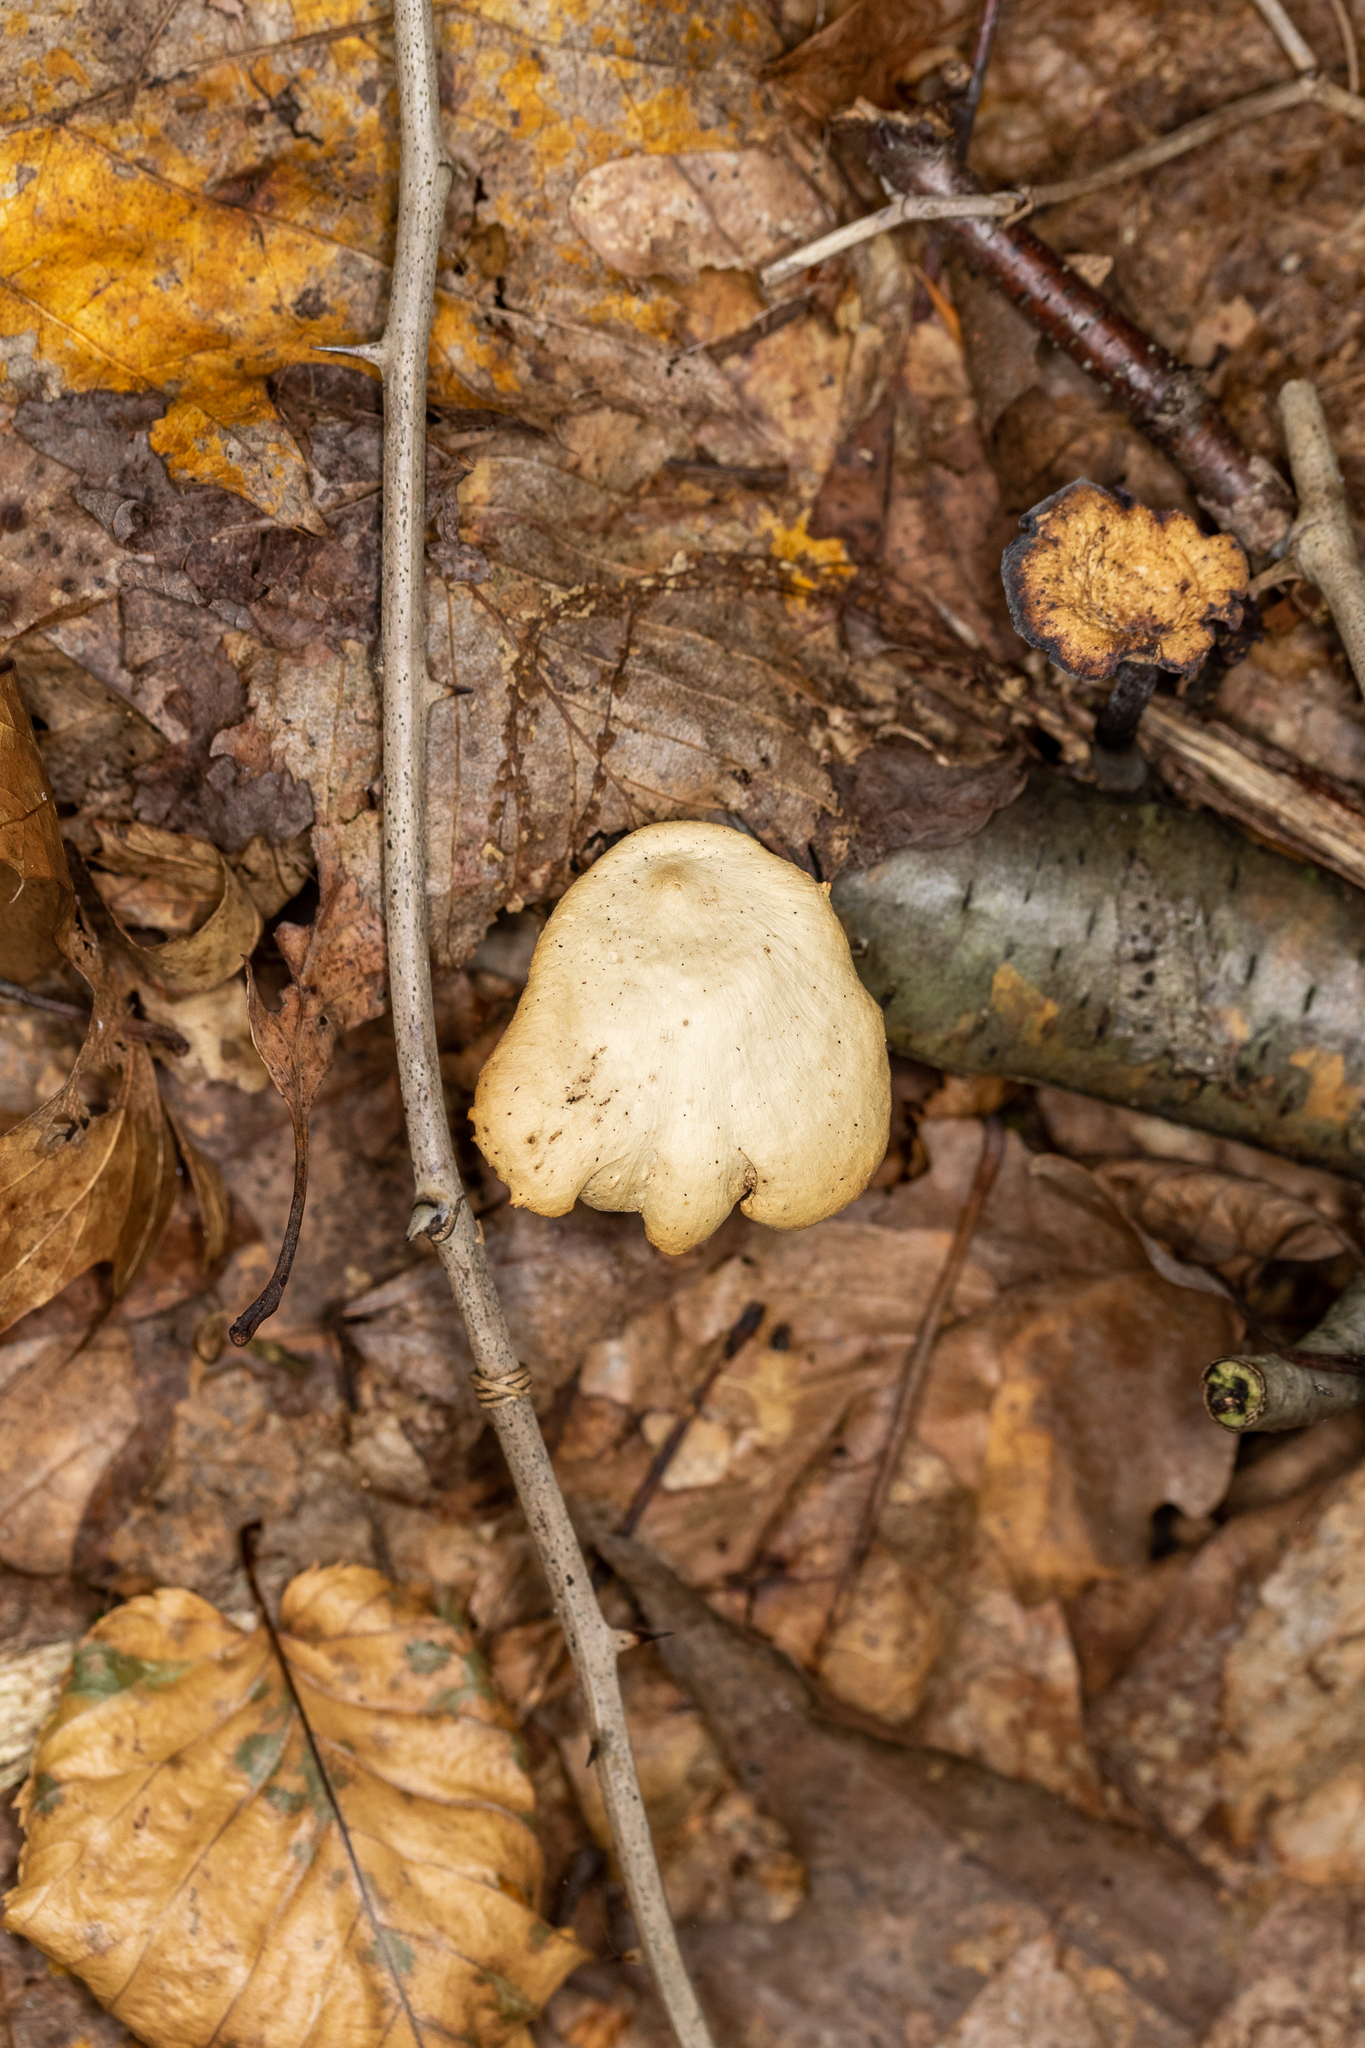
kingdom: Fungi
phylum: Basidiomycota
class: Agaricomycetes
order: Polyporales
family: Polyporaceae
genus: Cerioporus
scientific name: Cerioporus leptocephalus
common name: Blackfoot polypore
